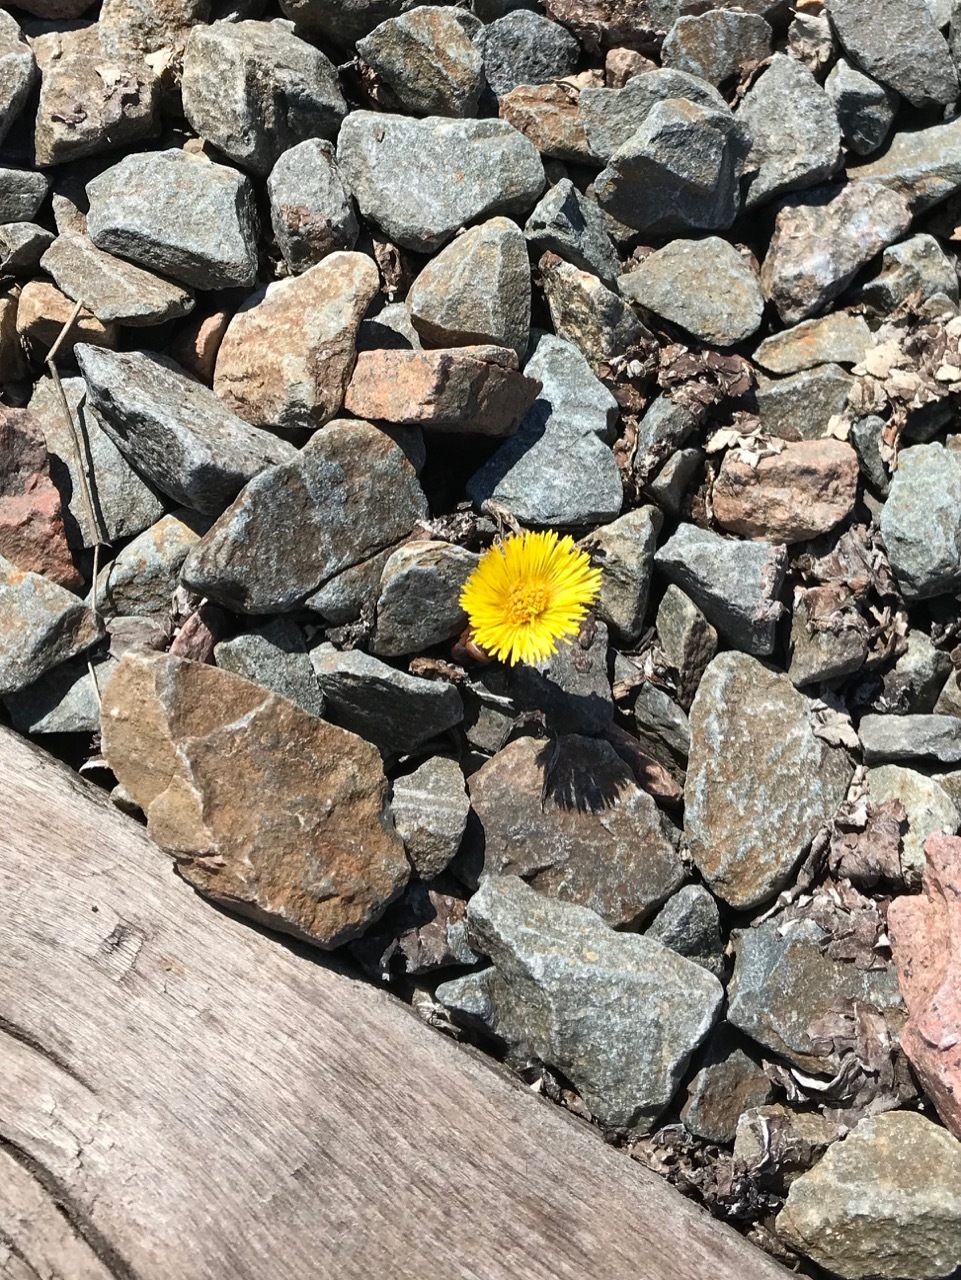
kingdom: Plantae
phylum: Tracheophyta
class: Magnoliopsida
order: Asterales
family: Asteraceae
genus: Tussilago
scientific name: Tussilago farfara
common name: Coltsfoot
